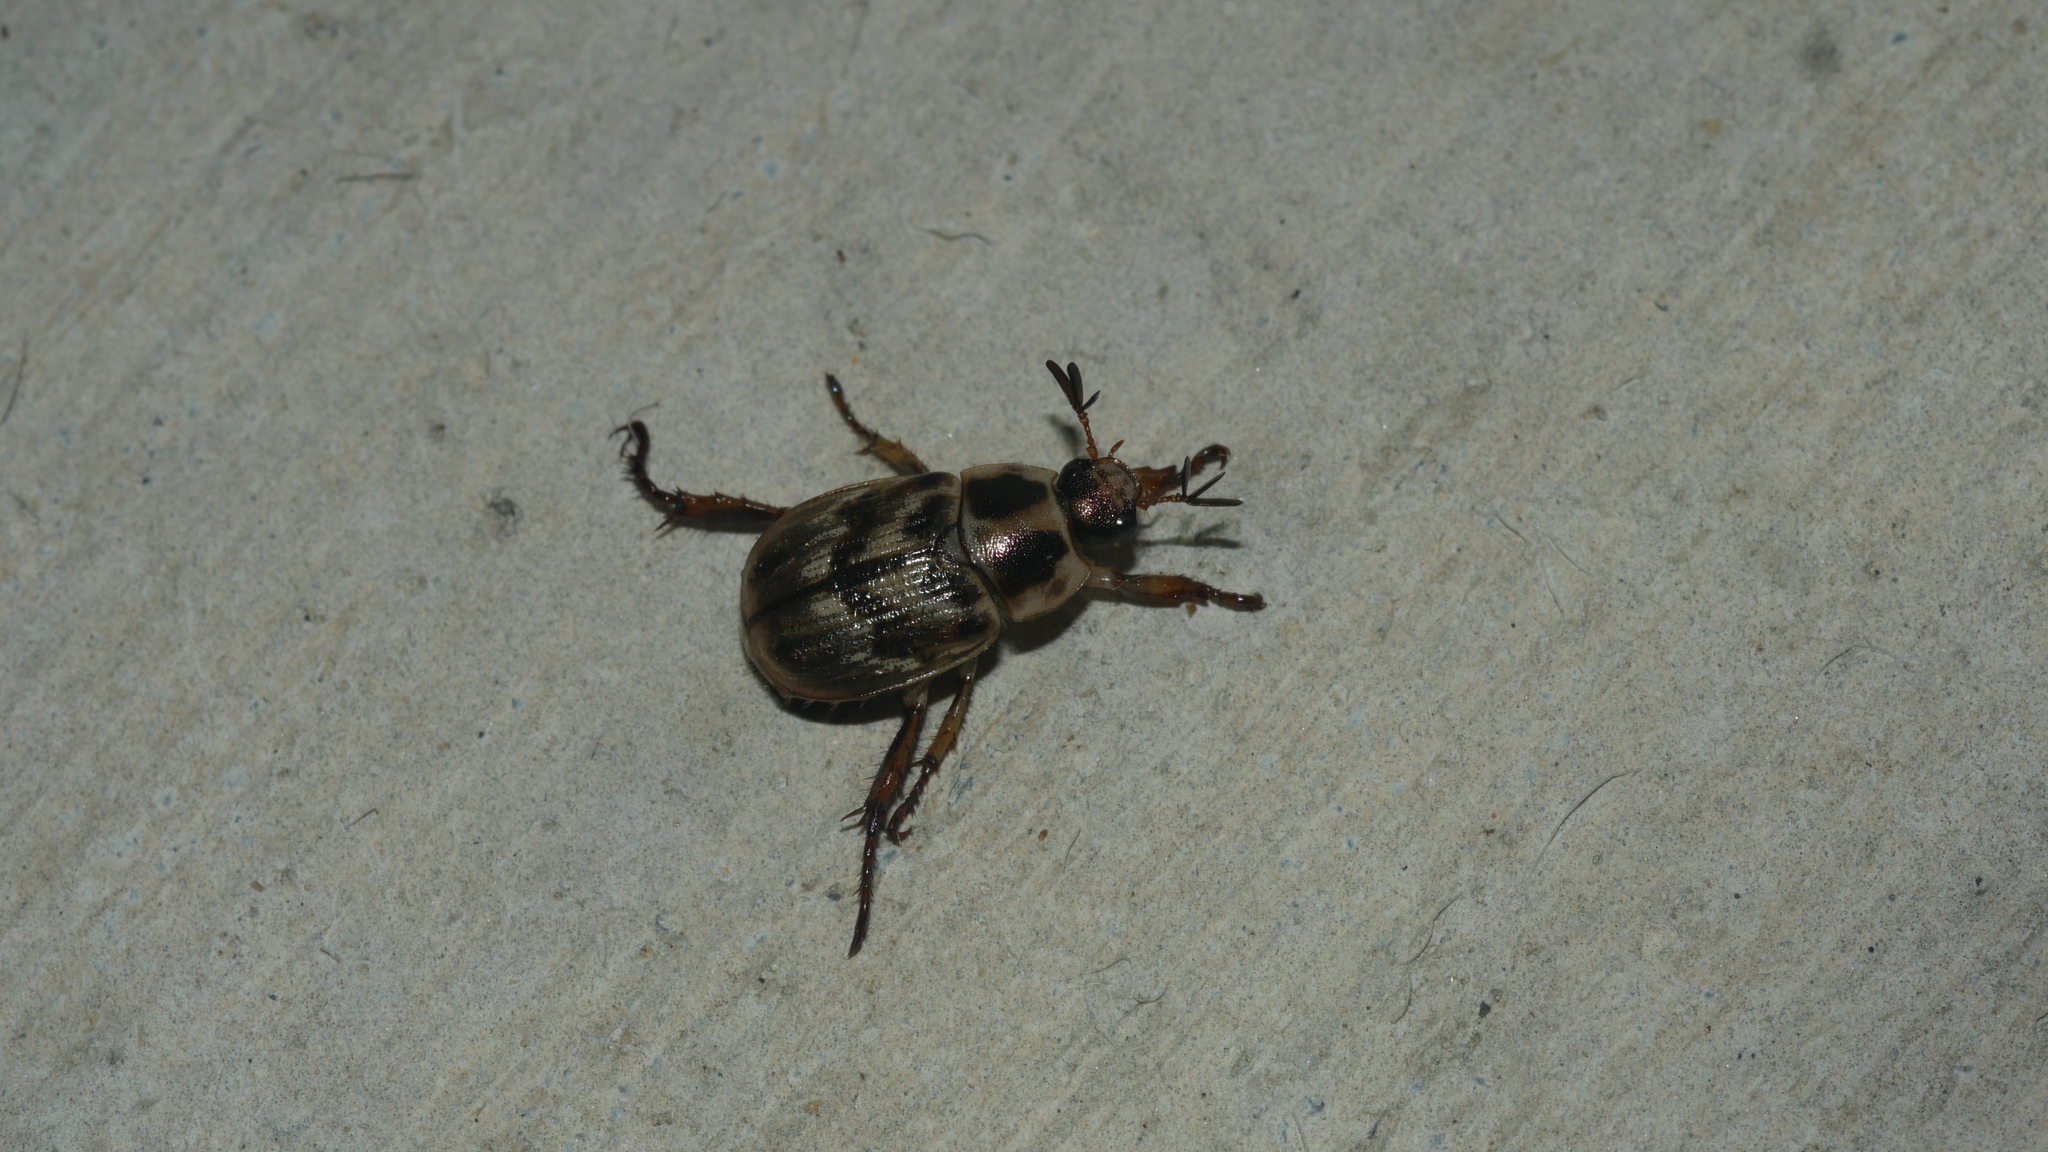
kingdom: Animalia
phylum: Arthropoda
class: Insecta
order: Coleoptera
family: Scarabaeidae
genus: Exomala
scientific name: Exomala orientalis
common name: Oriental beetle
